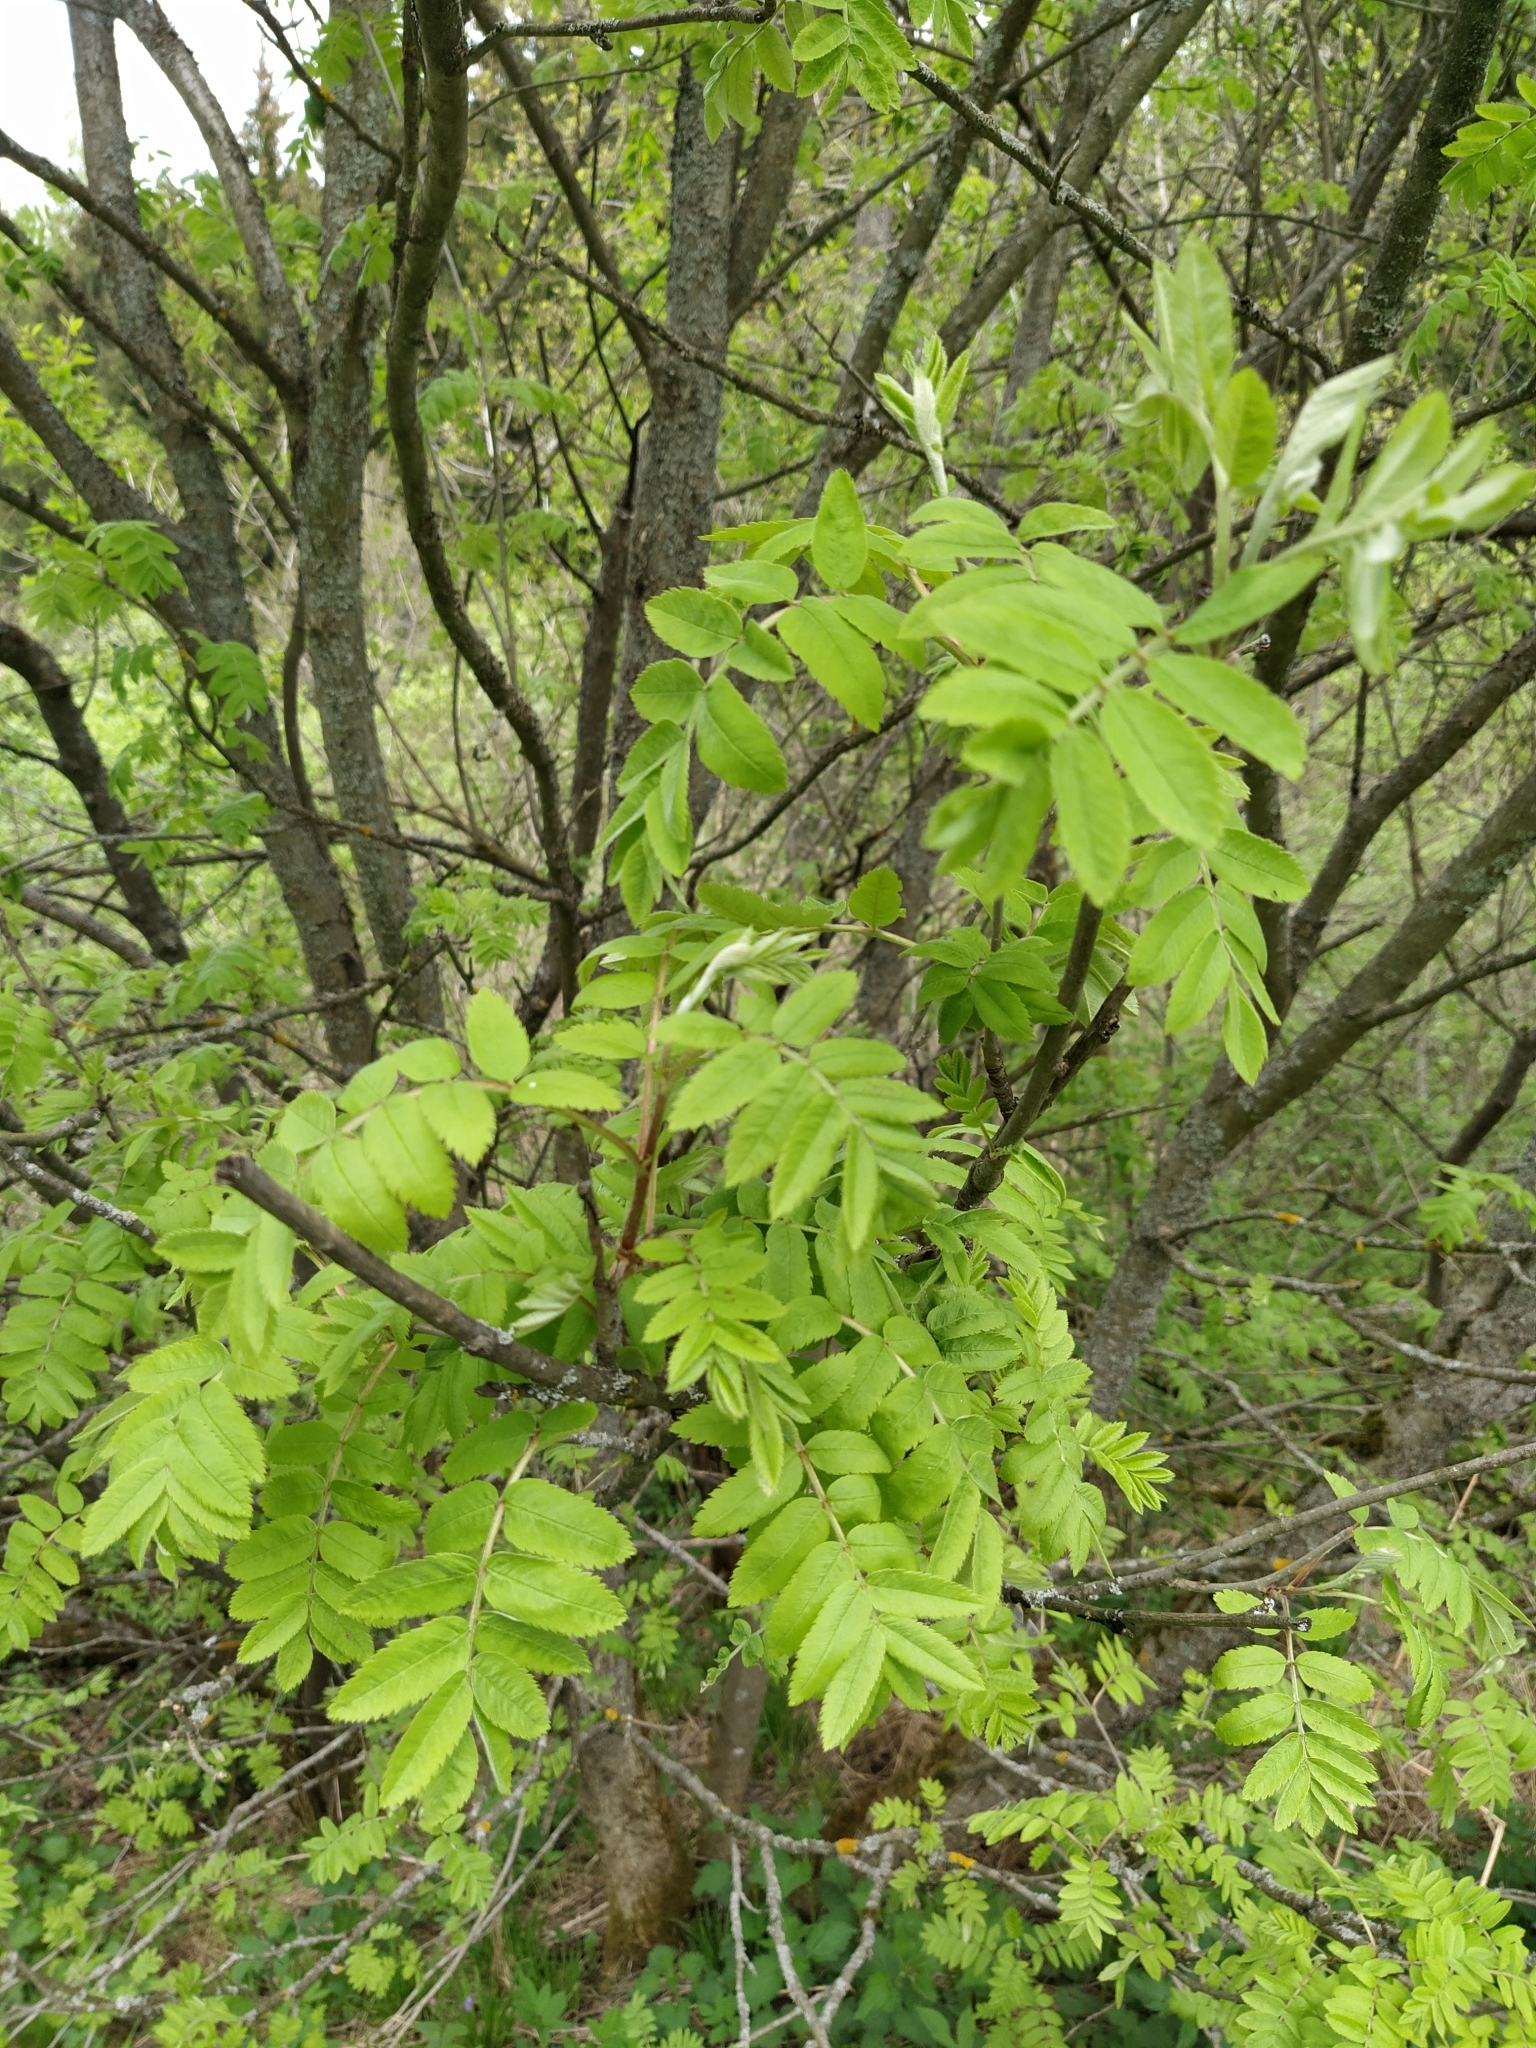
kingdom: Plantae
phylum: Tracheophyta
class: Magnoliopsida
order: Rosales
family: Rosaceae
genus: Sorbus
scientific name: Sorbus aucuparia
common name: Rowan
